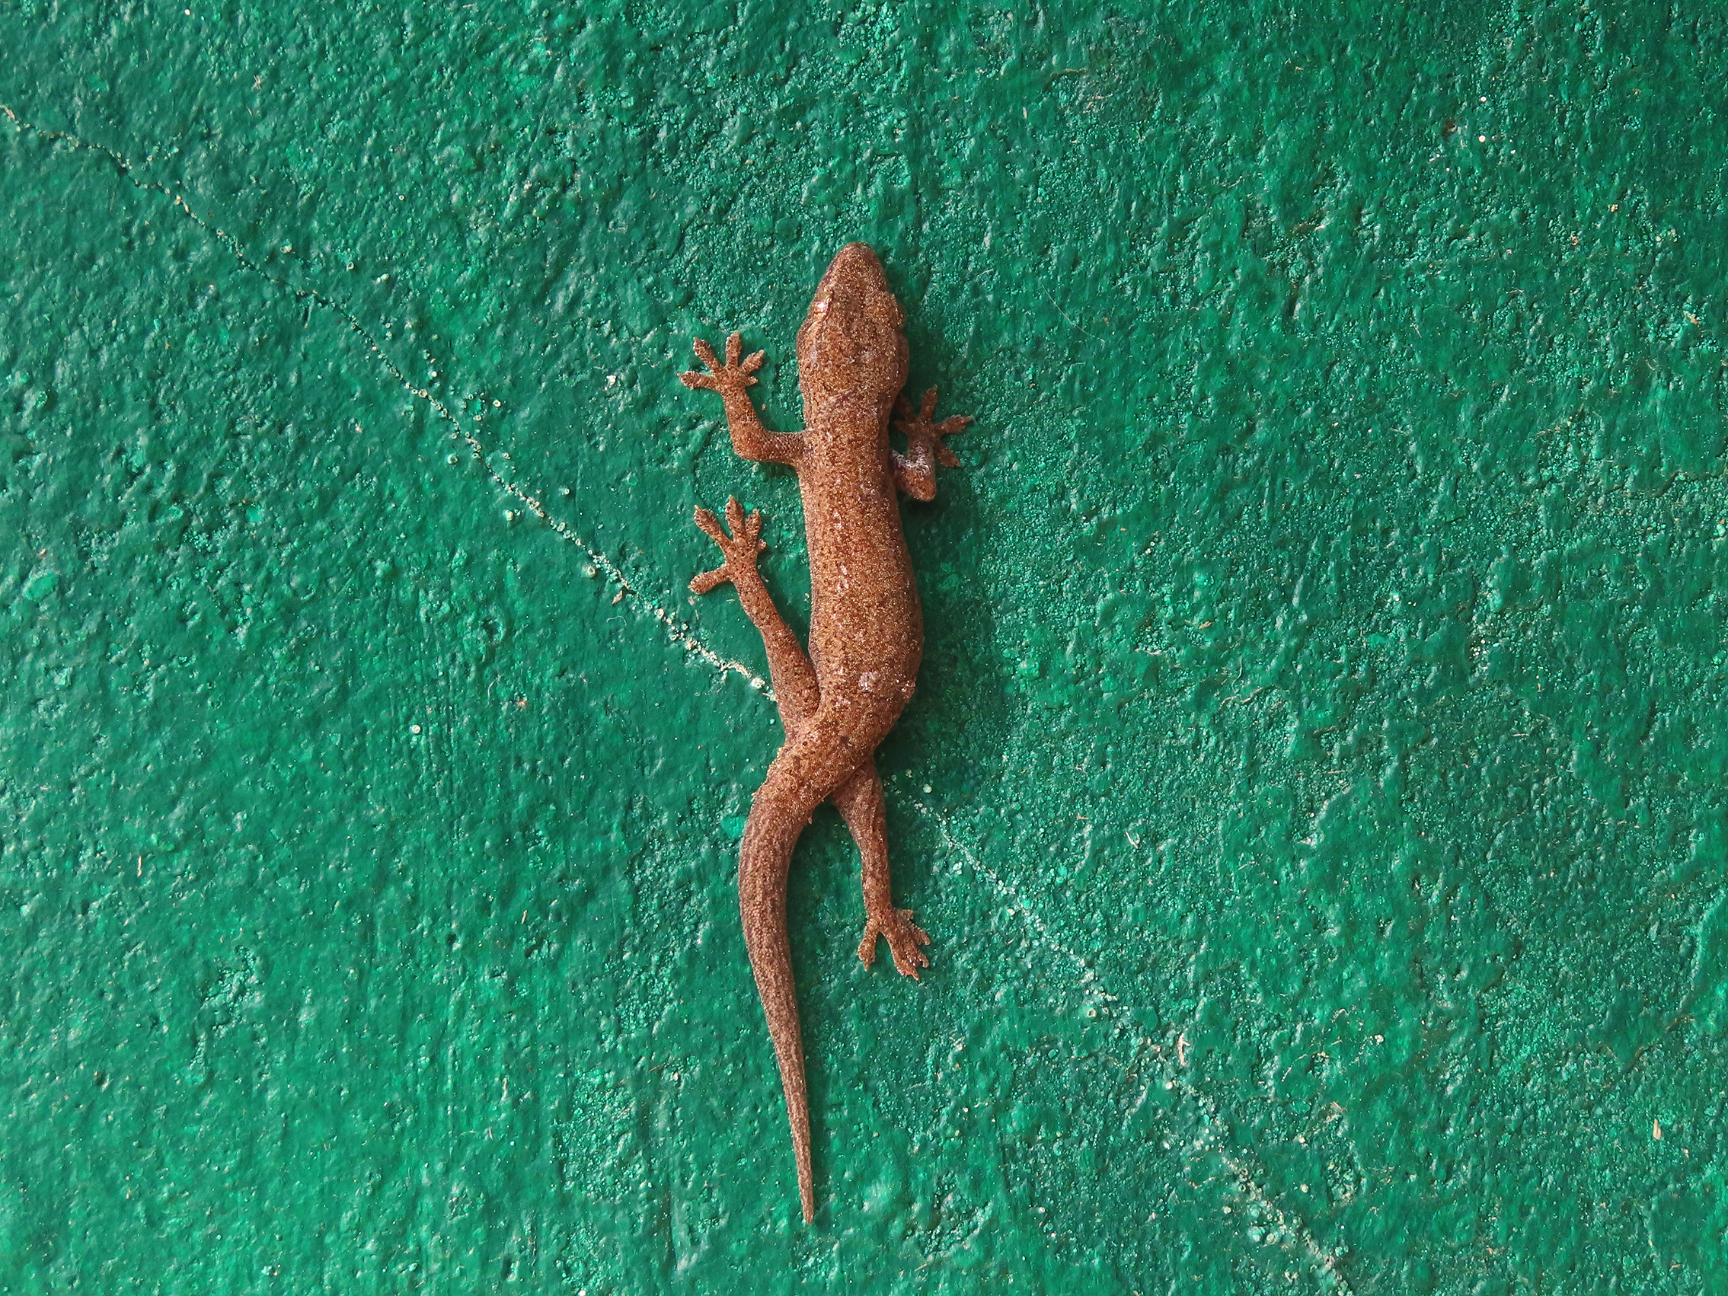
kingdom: Animalia
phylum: Chordata
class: Squamata
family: Gekkonidae
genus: Hemidactylus
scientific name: Hemidactylus frenatus
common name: Common house gecko
